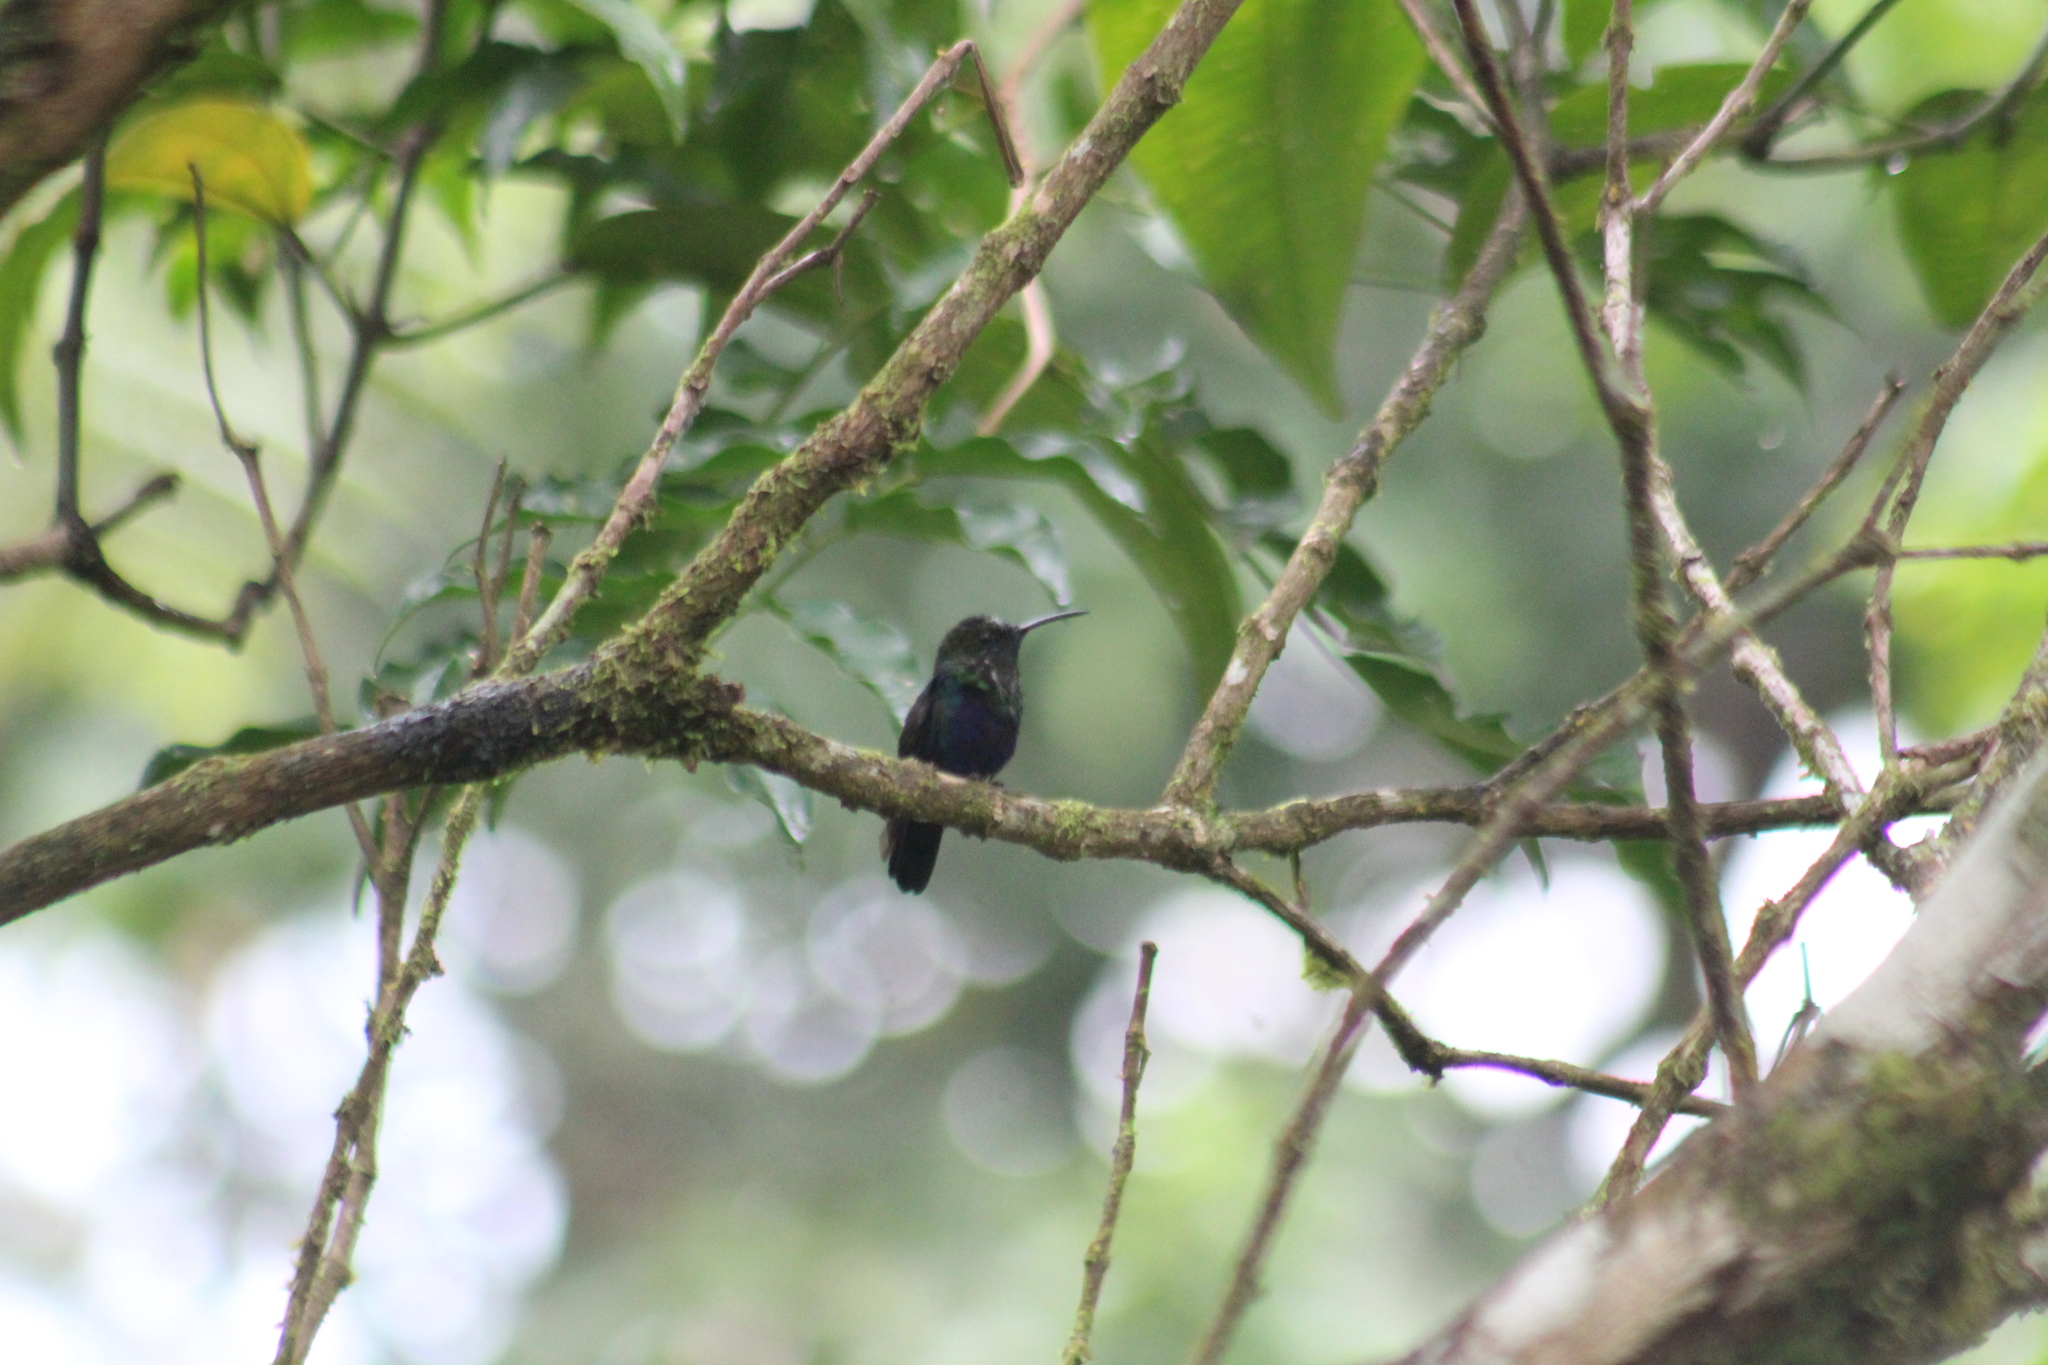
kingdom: Animalia
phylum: Chordata
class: Aves
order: Apodiformes
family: Trochilidae
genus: Thalurania
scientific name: Thalurania furcata
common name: Fork-tailed woodnymph
